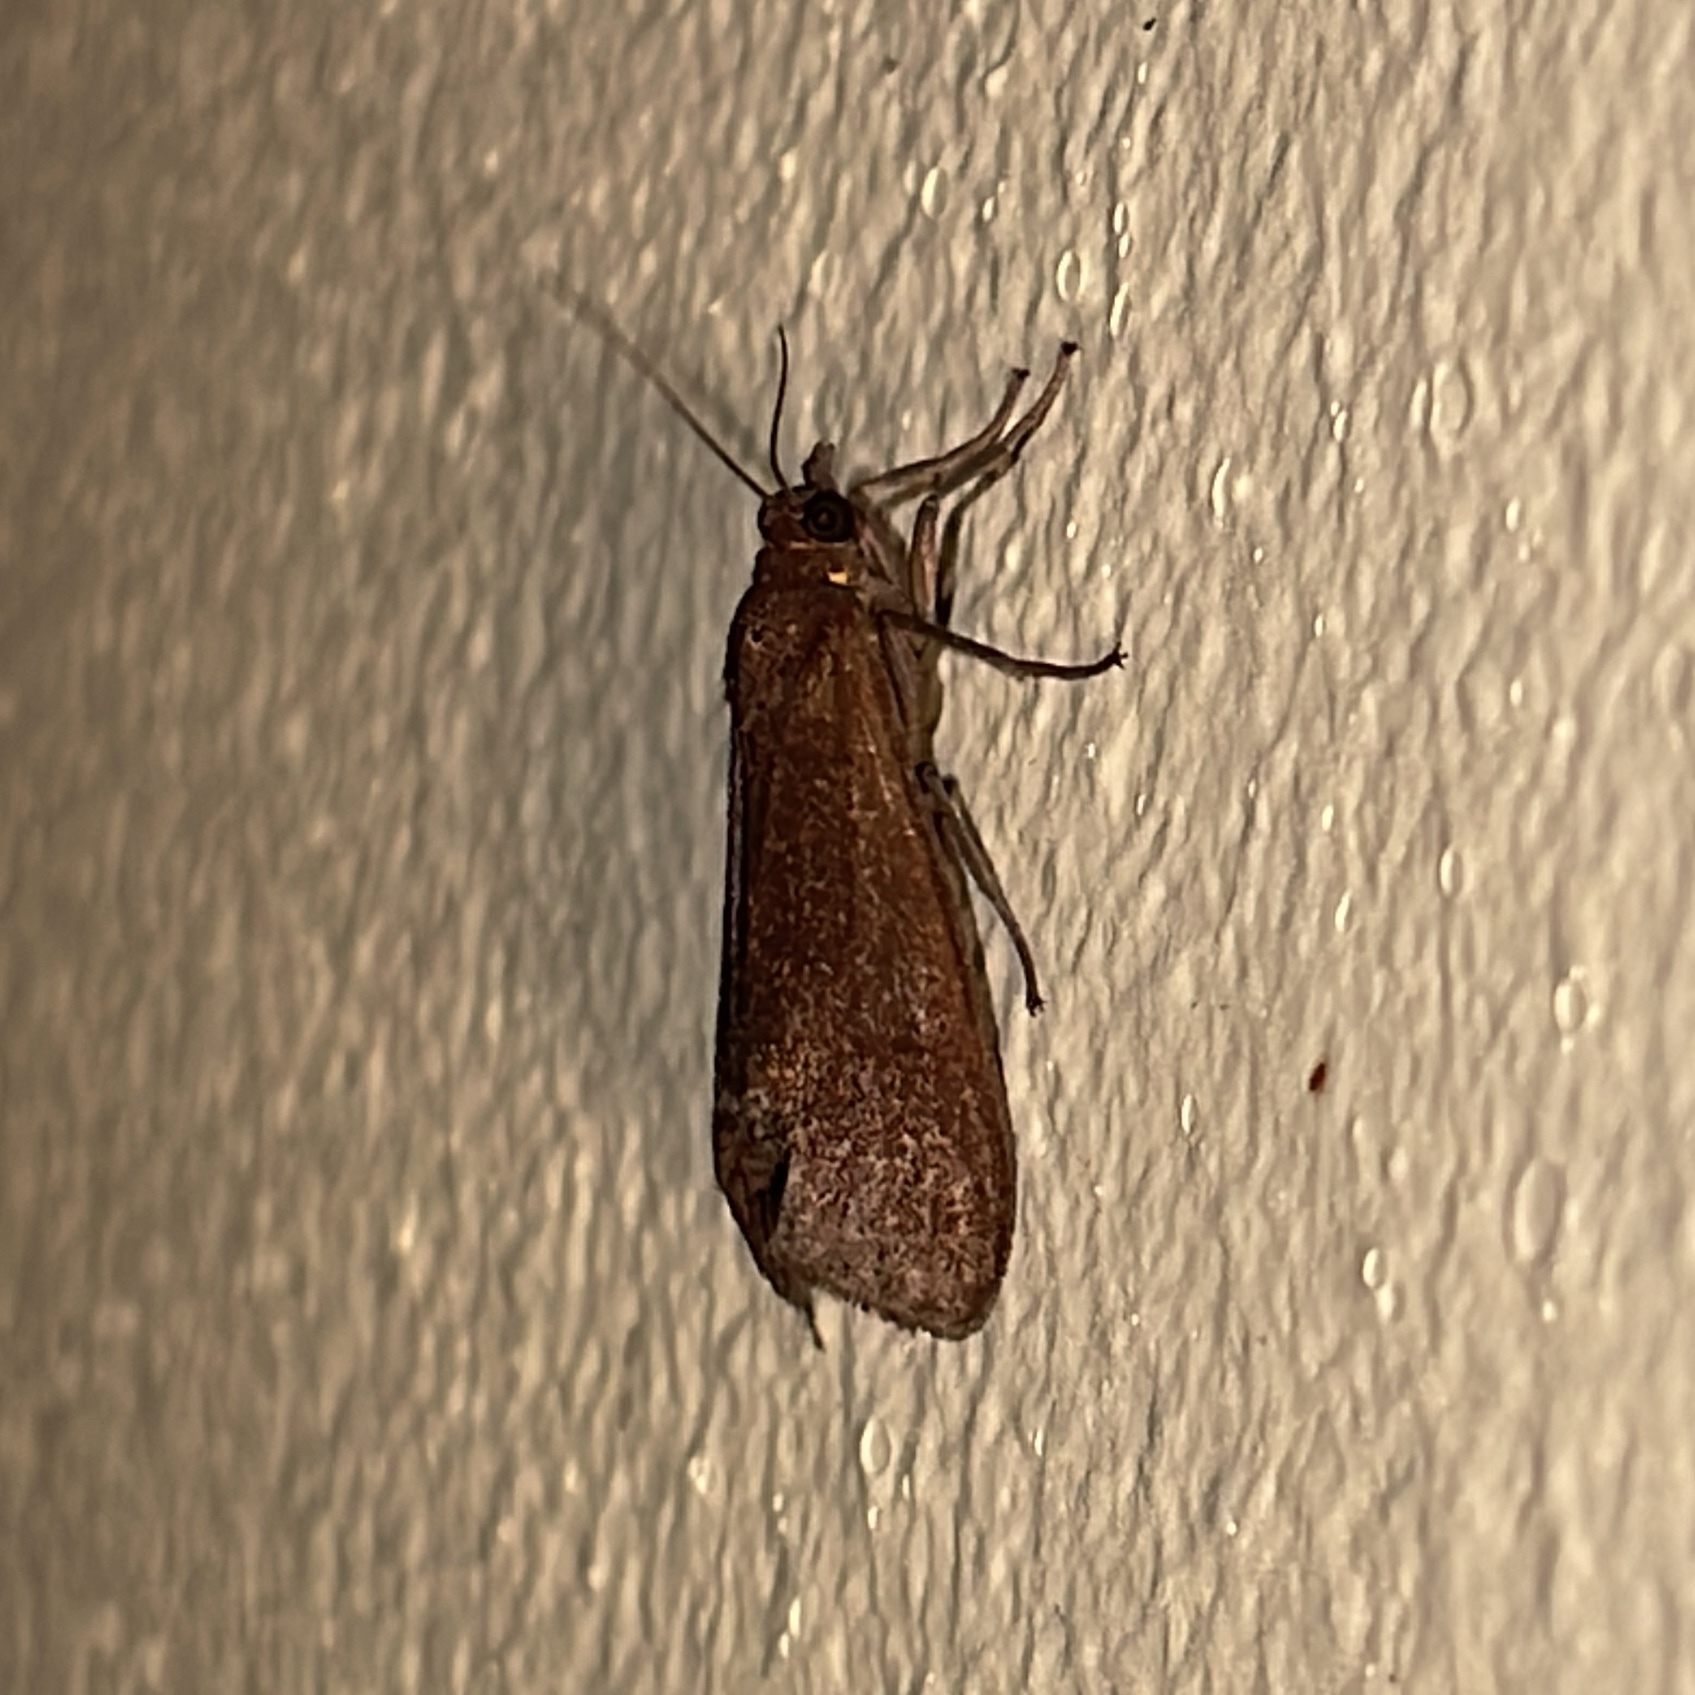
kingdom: Animalia
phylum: Arthropoda
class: Insecta
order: Lepidoptera
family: Erebidae
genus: Virbia
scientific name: Virbia medarda
